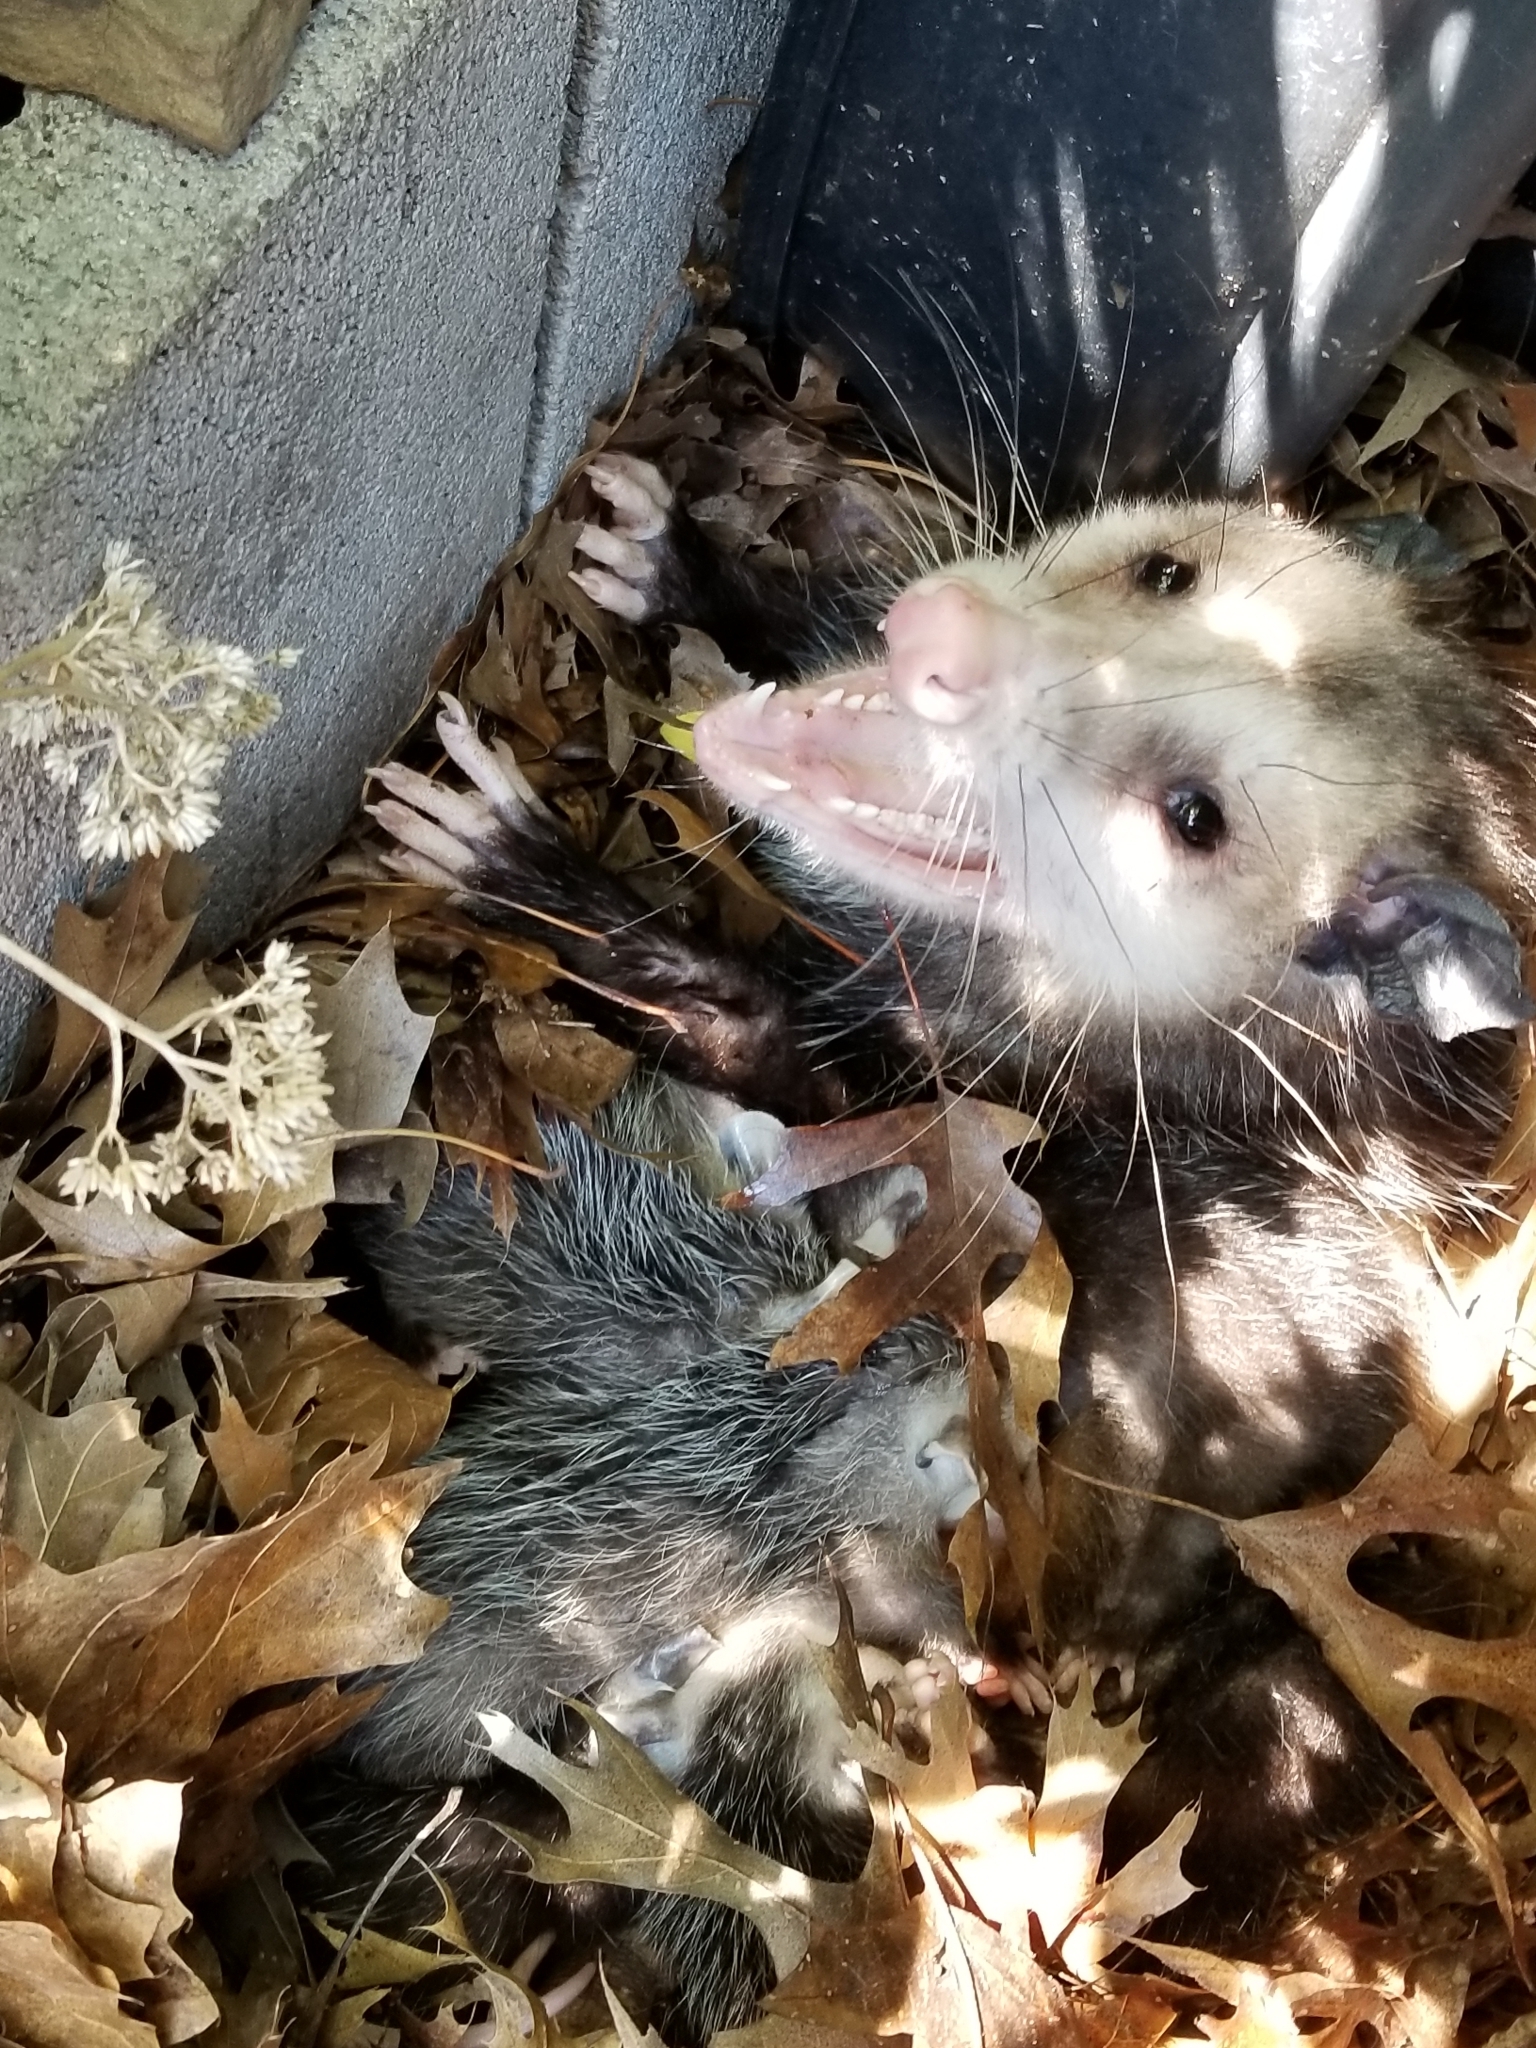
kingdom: Animalia
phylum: Chordata
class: Mammalia
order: Didelphimorphia
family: Didelphidae
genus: Didelphis
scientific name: Didelphis virginiana
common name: Virginia opossum
